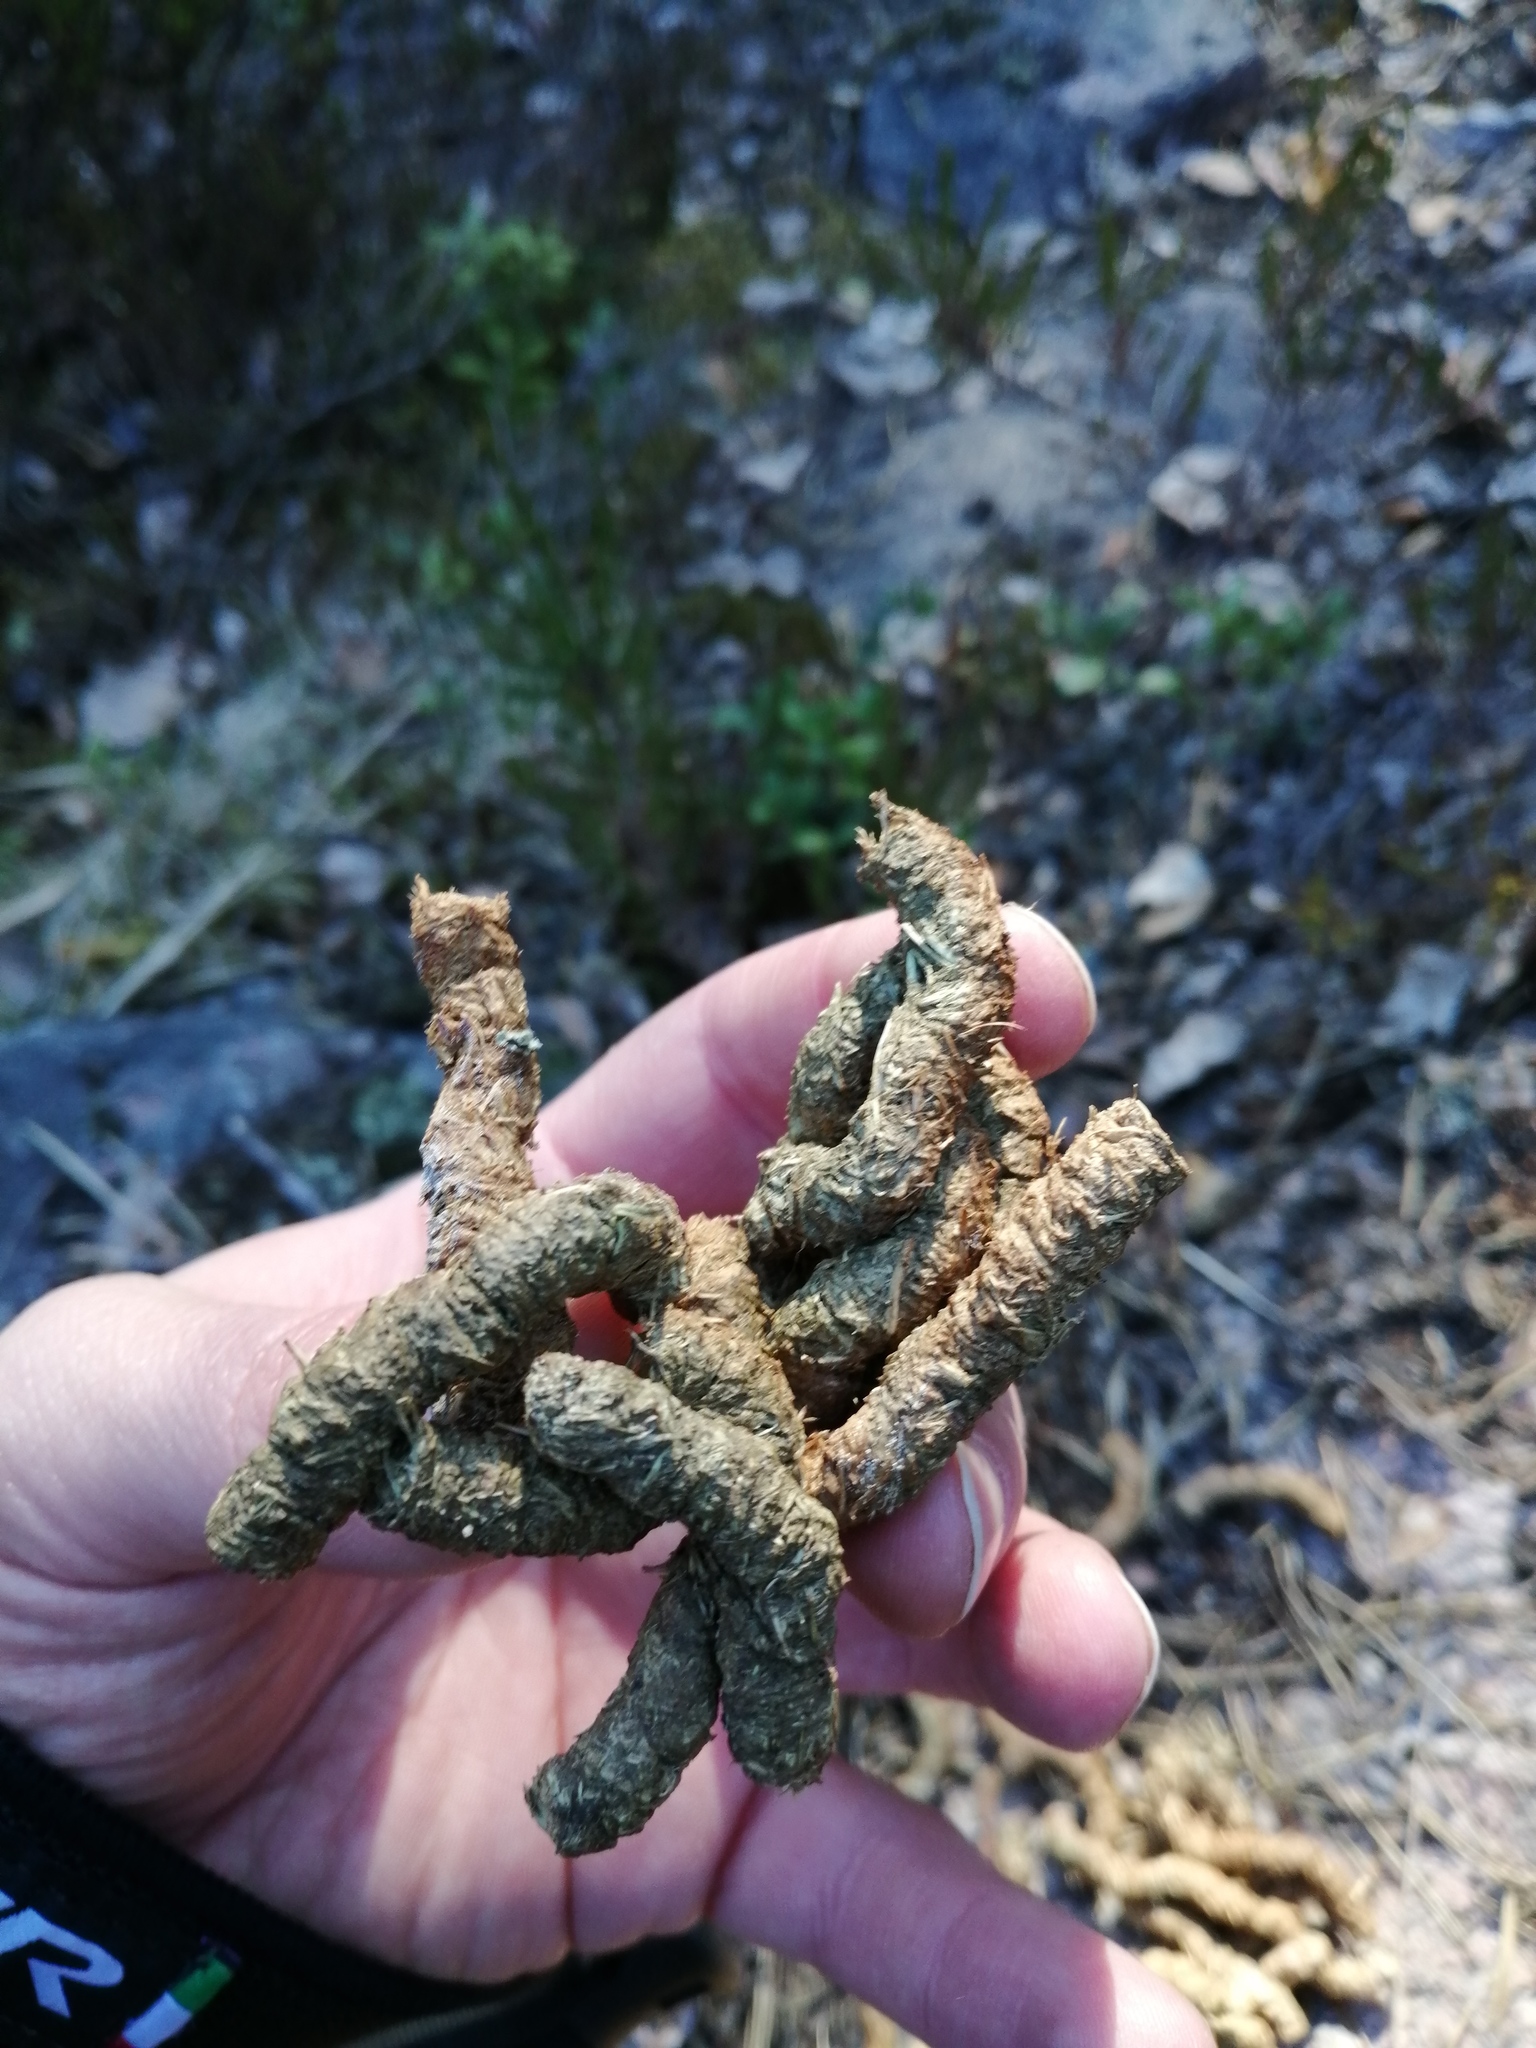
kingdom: Animalia
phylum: Chordata
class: Aves
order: Galliformes
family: Phasianidae
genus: Tetrao
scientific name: Tetrao urogallus
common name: Western capercaillie
